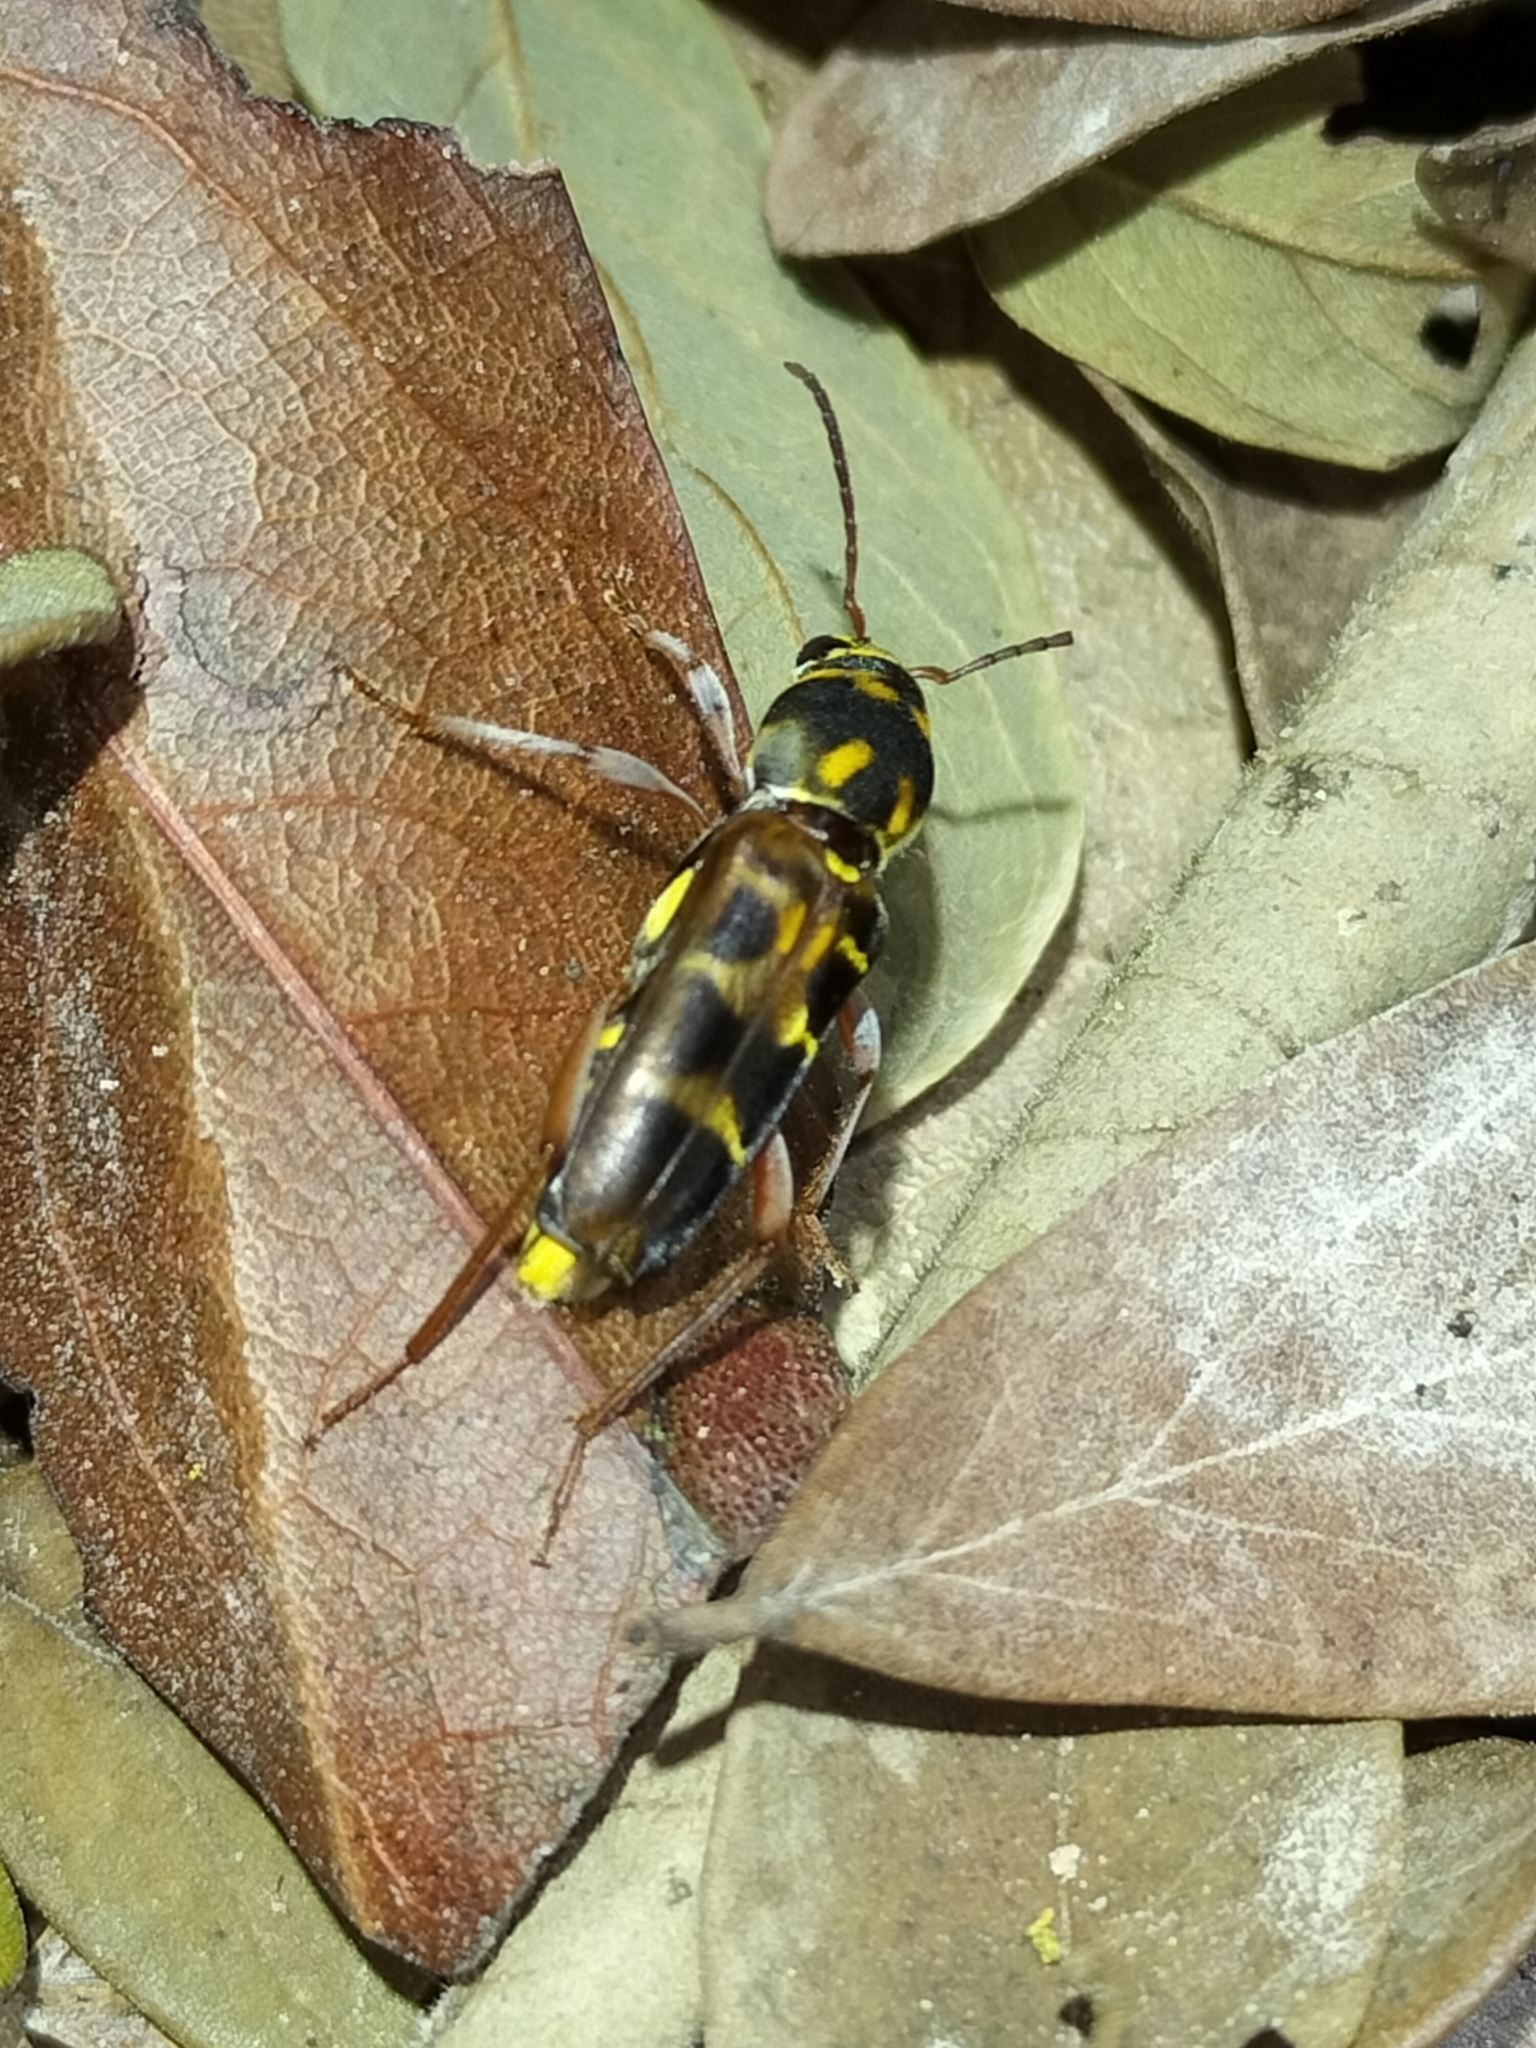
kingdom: Animalia
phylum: Arthropoda
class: Insecta
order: Coleoptera
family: Cerambycidae
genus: Xylotrechus
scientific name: Xylotrechus australis
